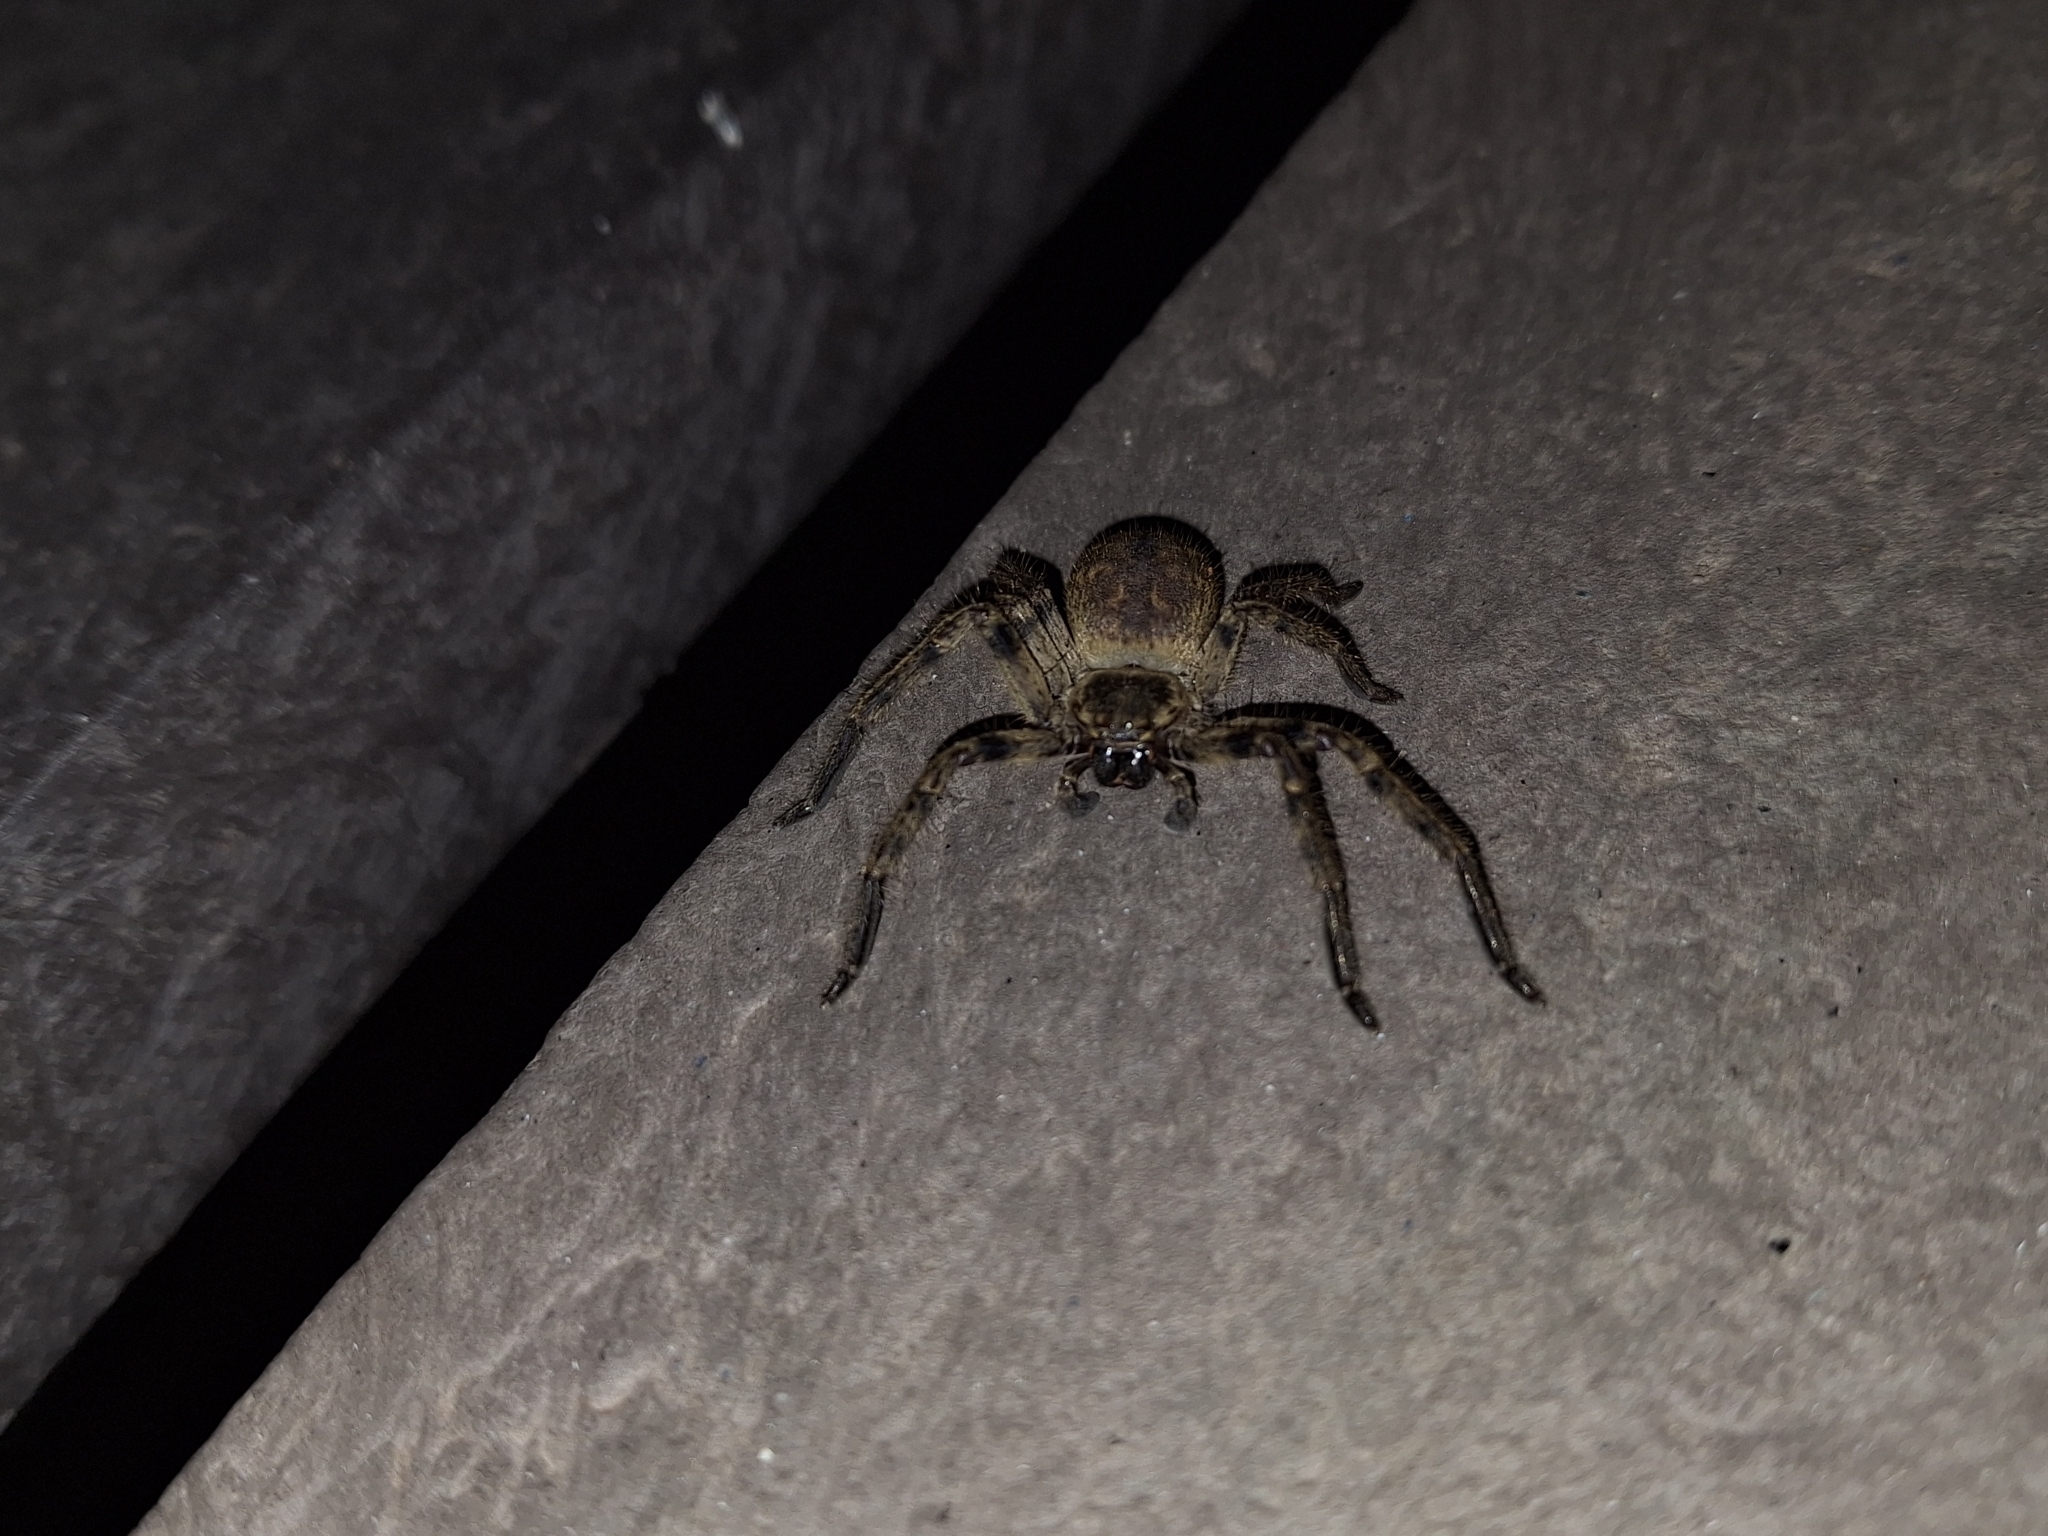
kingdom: Animalia
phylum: Arthropoda
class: Arachnida
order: Araneae
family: Sparassidae
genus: Polybetes
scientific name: Polybetes pythagoricus
